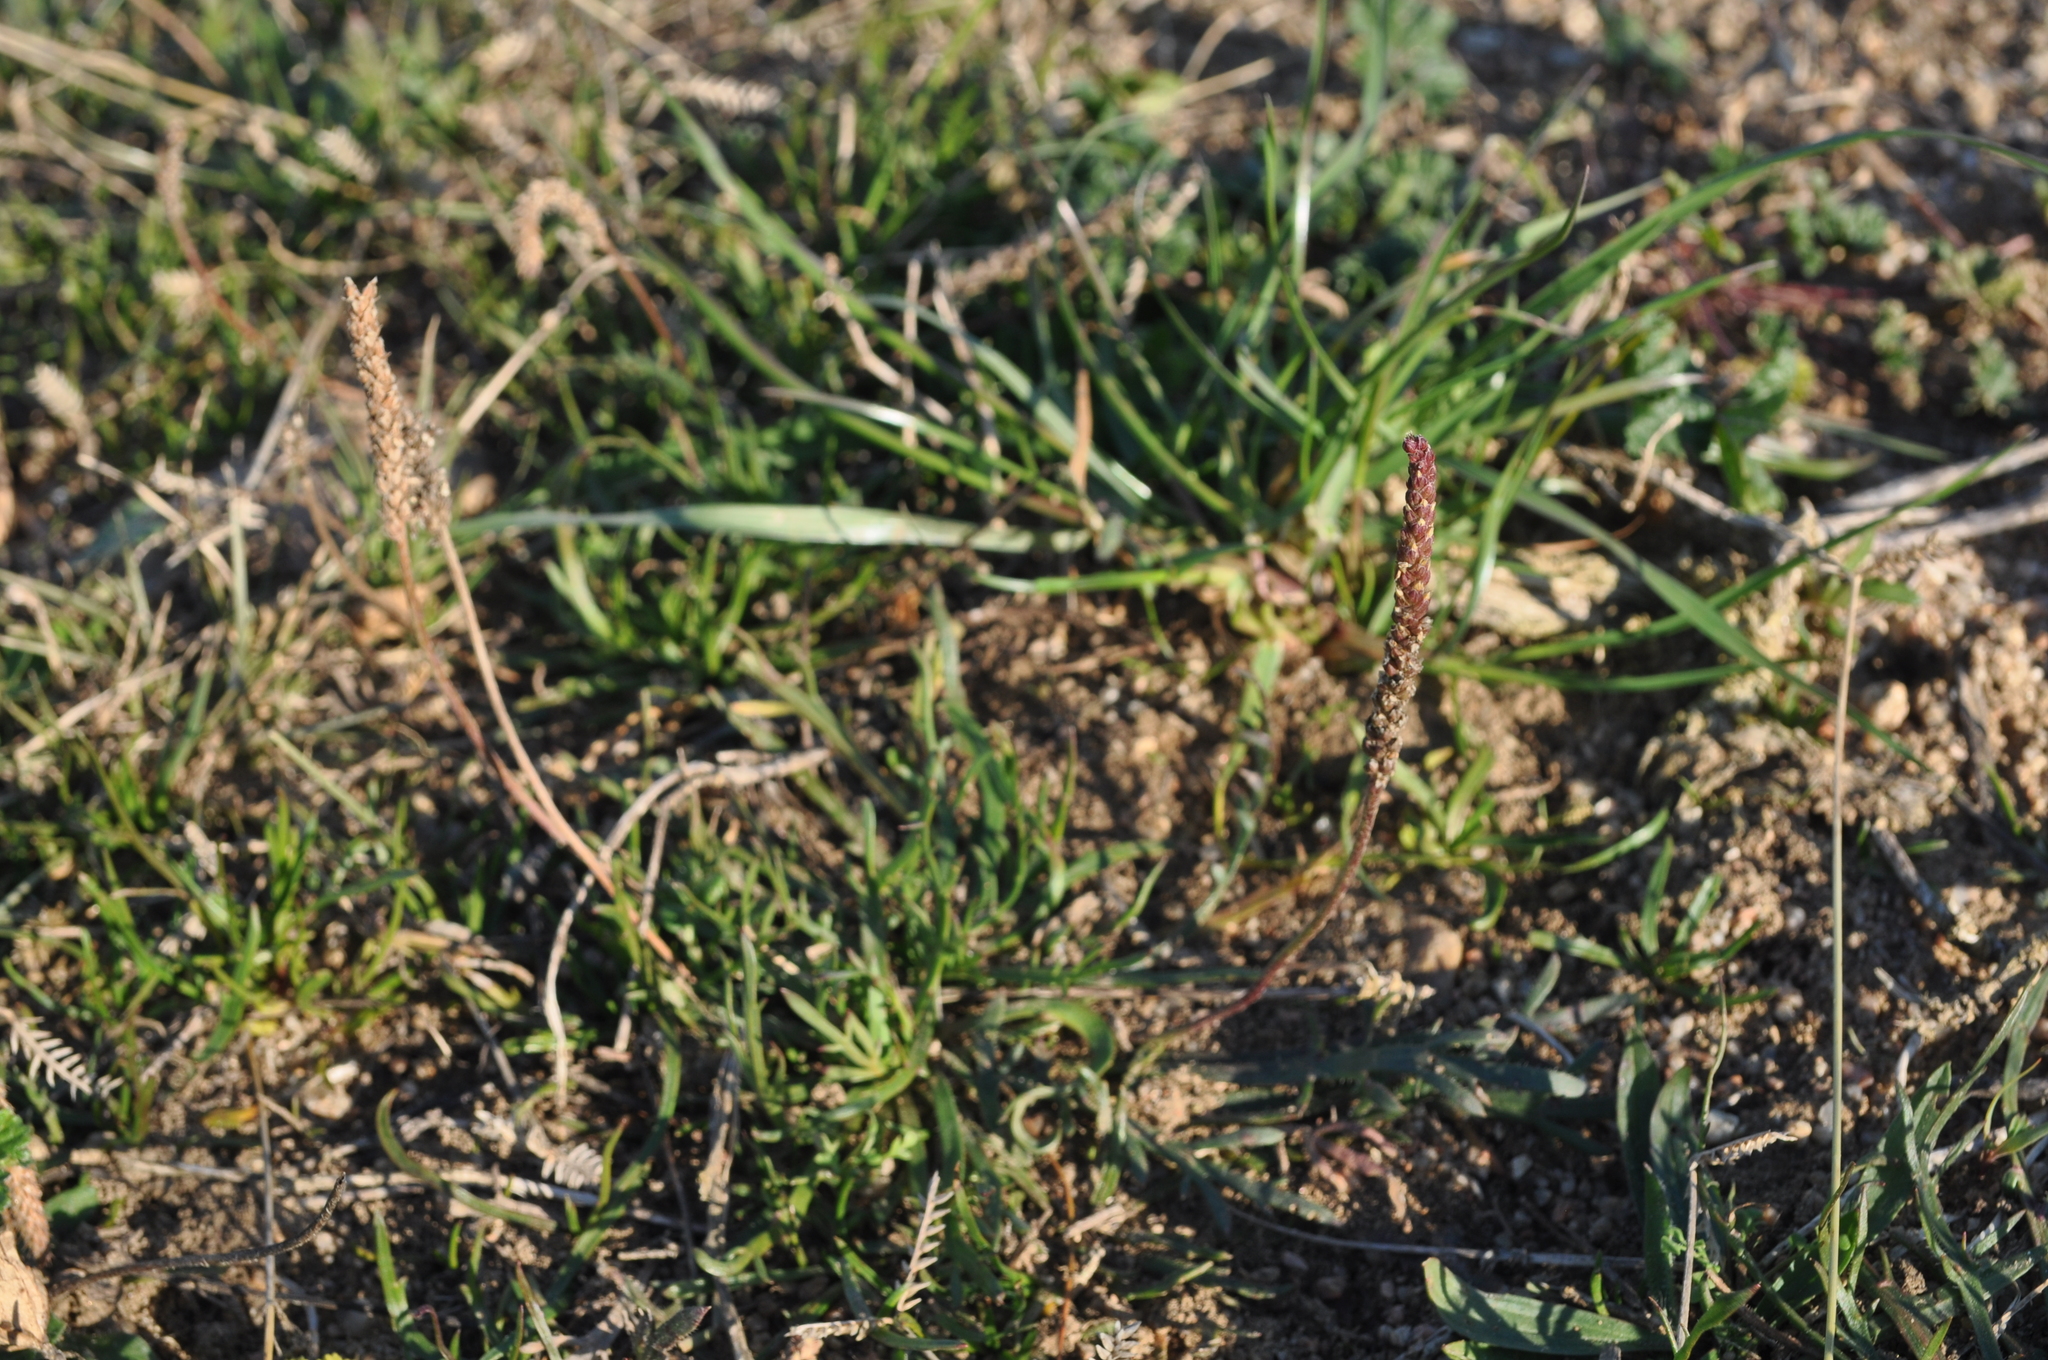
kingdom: Plantae
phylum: Tracheophyta
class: Magnoliopsida
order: Lamiales
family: Plantaginaceae
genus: Plantago
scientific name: Plantago coronopus
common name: Buck's-horn plantain
